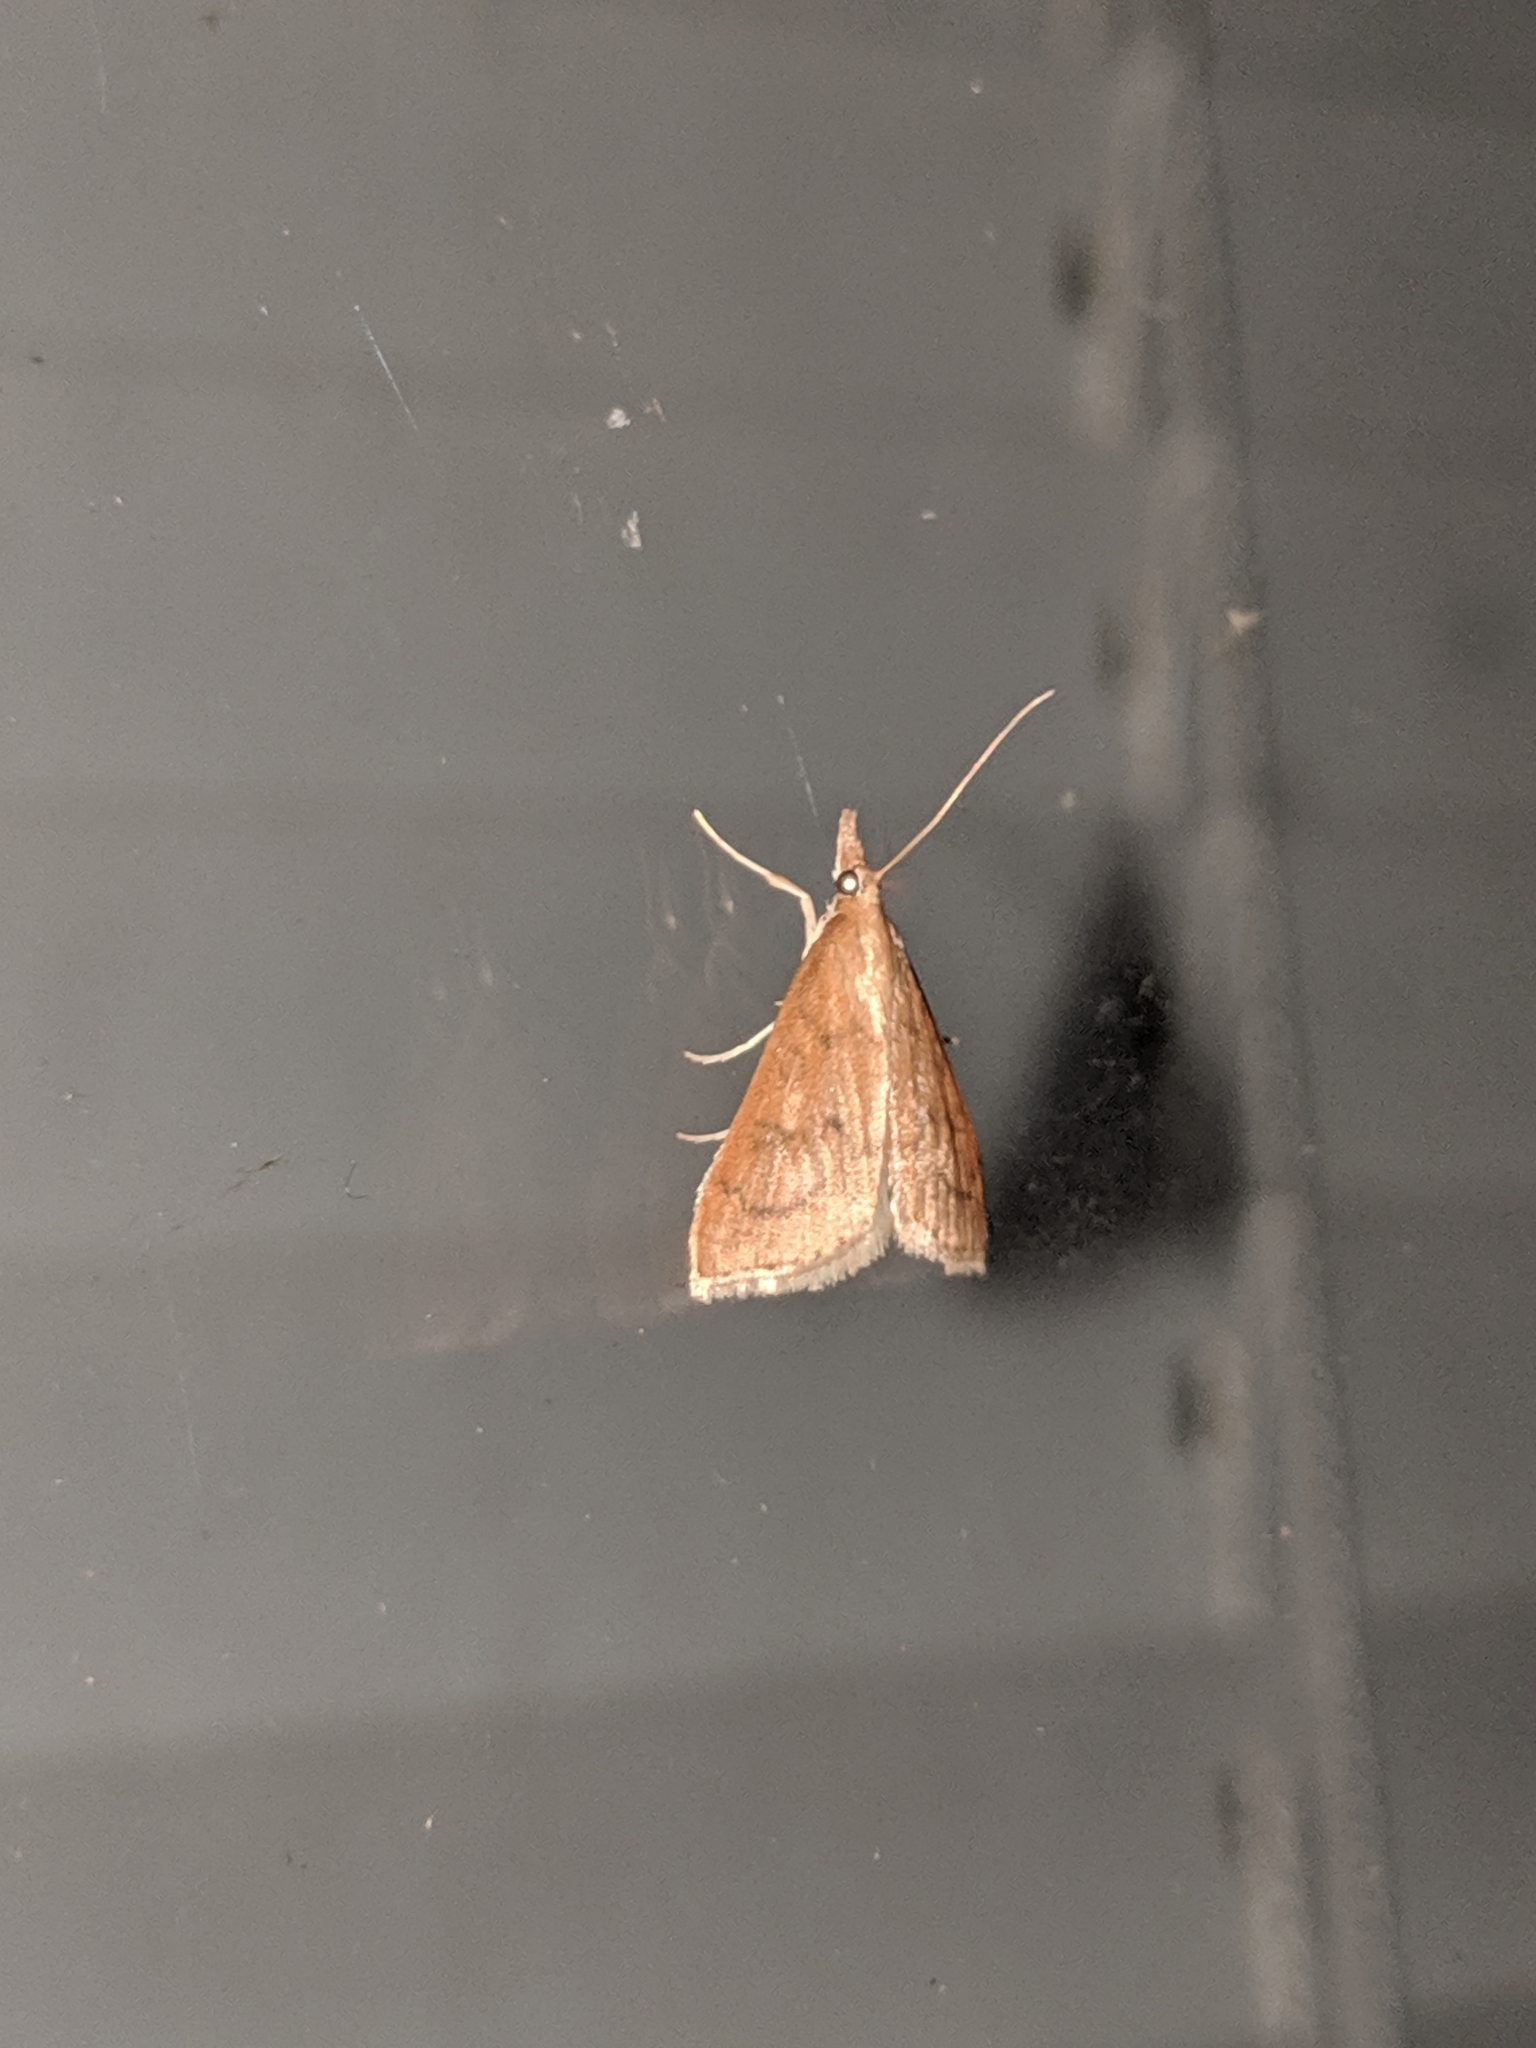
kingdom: Animalia
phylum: Arthropoda
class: Insecta
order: Lepidoptera
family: Crambidae
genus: Udea
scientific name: Udea rubigalis
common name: Celery leaftier moth
